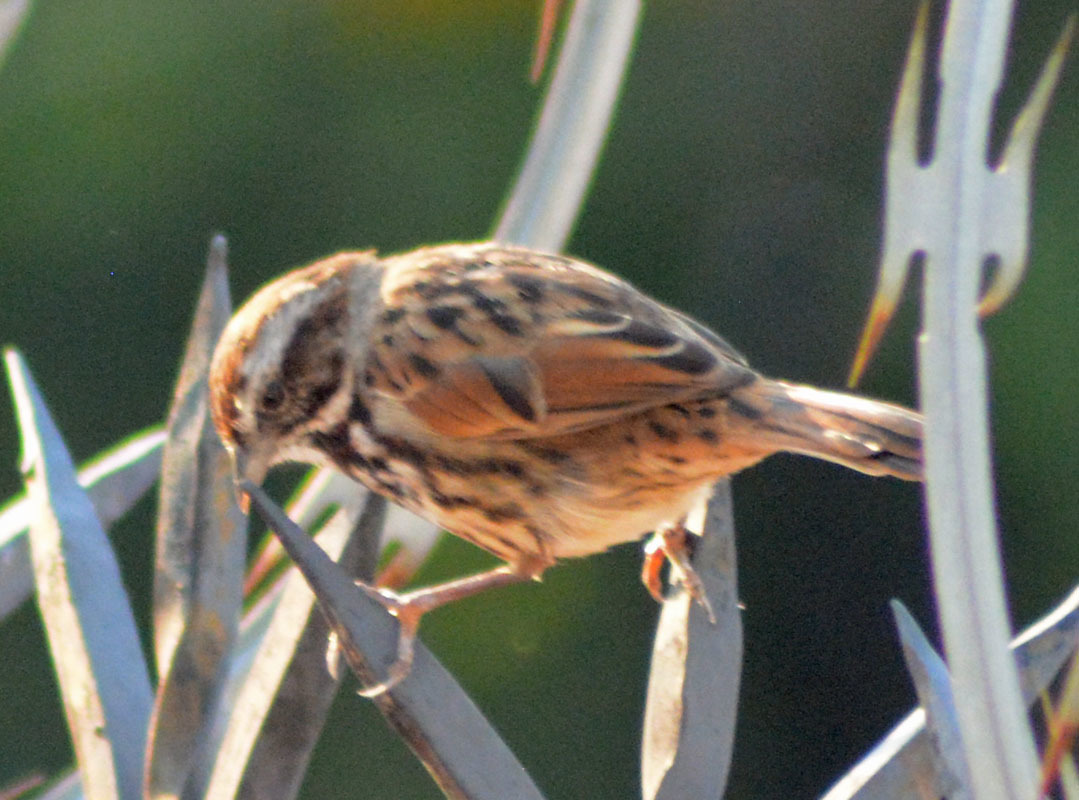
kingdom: Animalia
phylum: Chordata
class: Aves
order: Passeriformes
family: Passerellidae
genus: Melospiza
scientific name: Melospiza melodia
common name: Song sparrow
